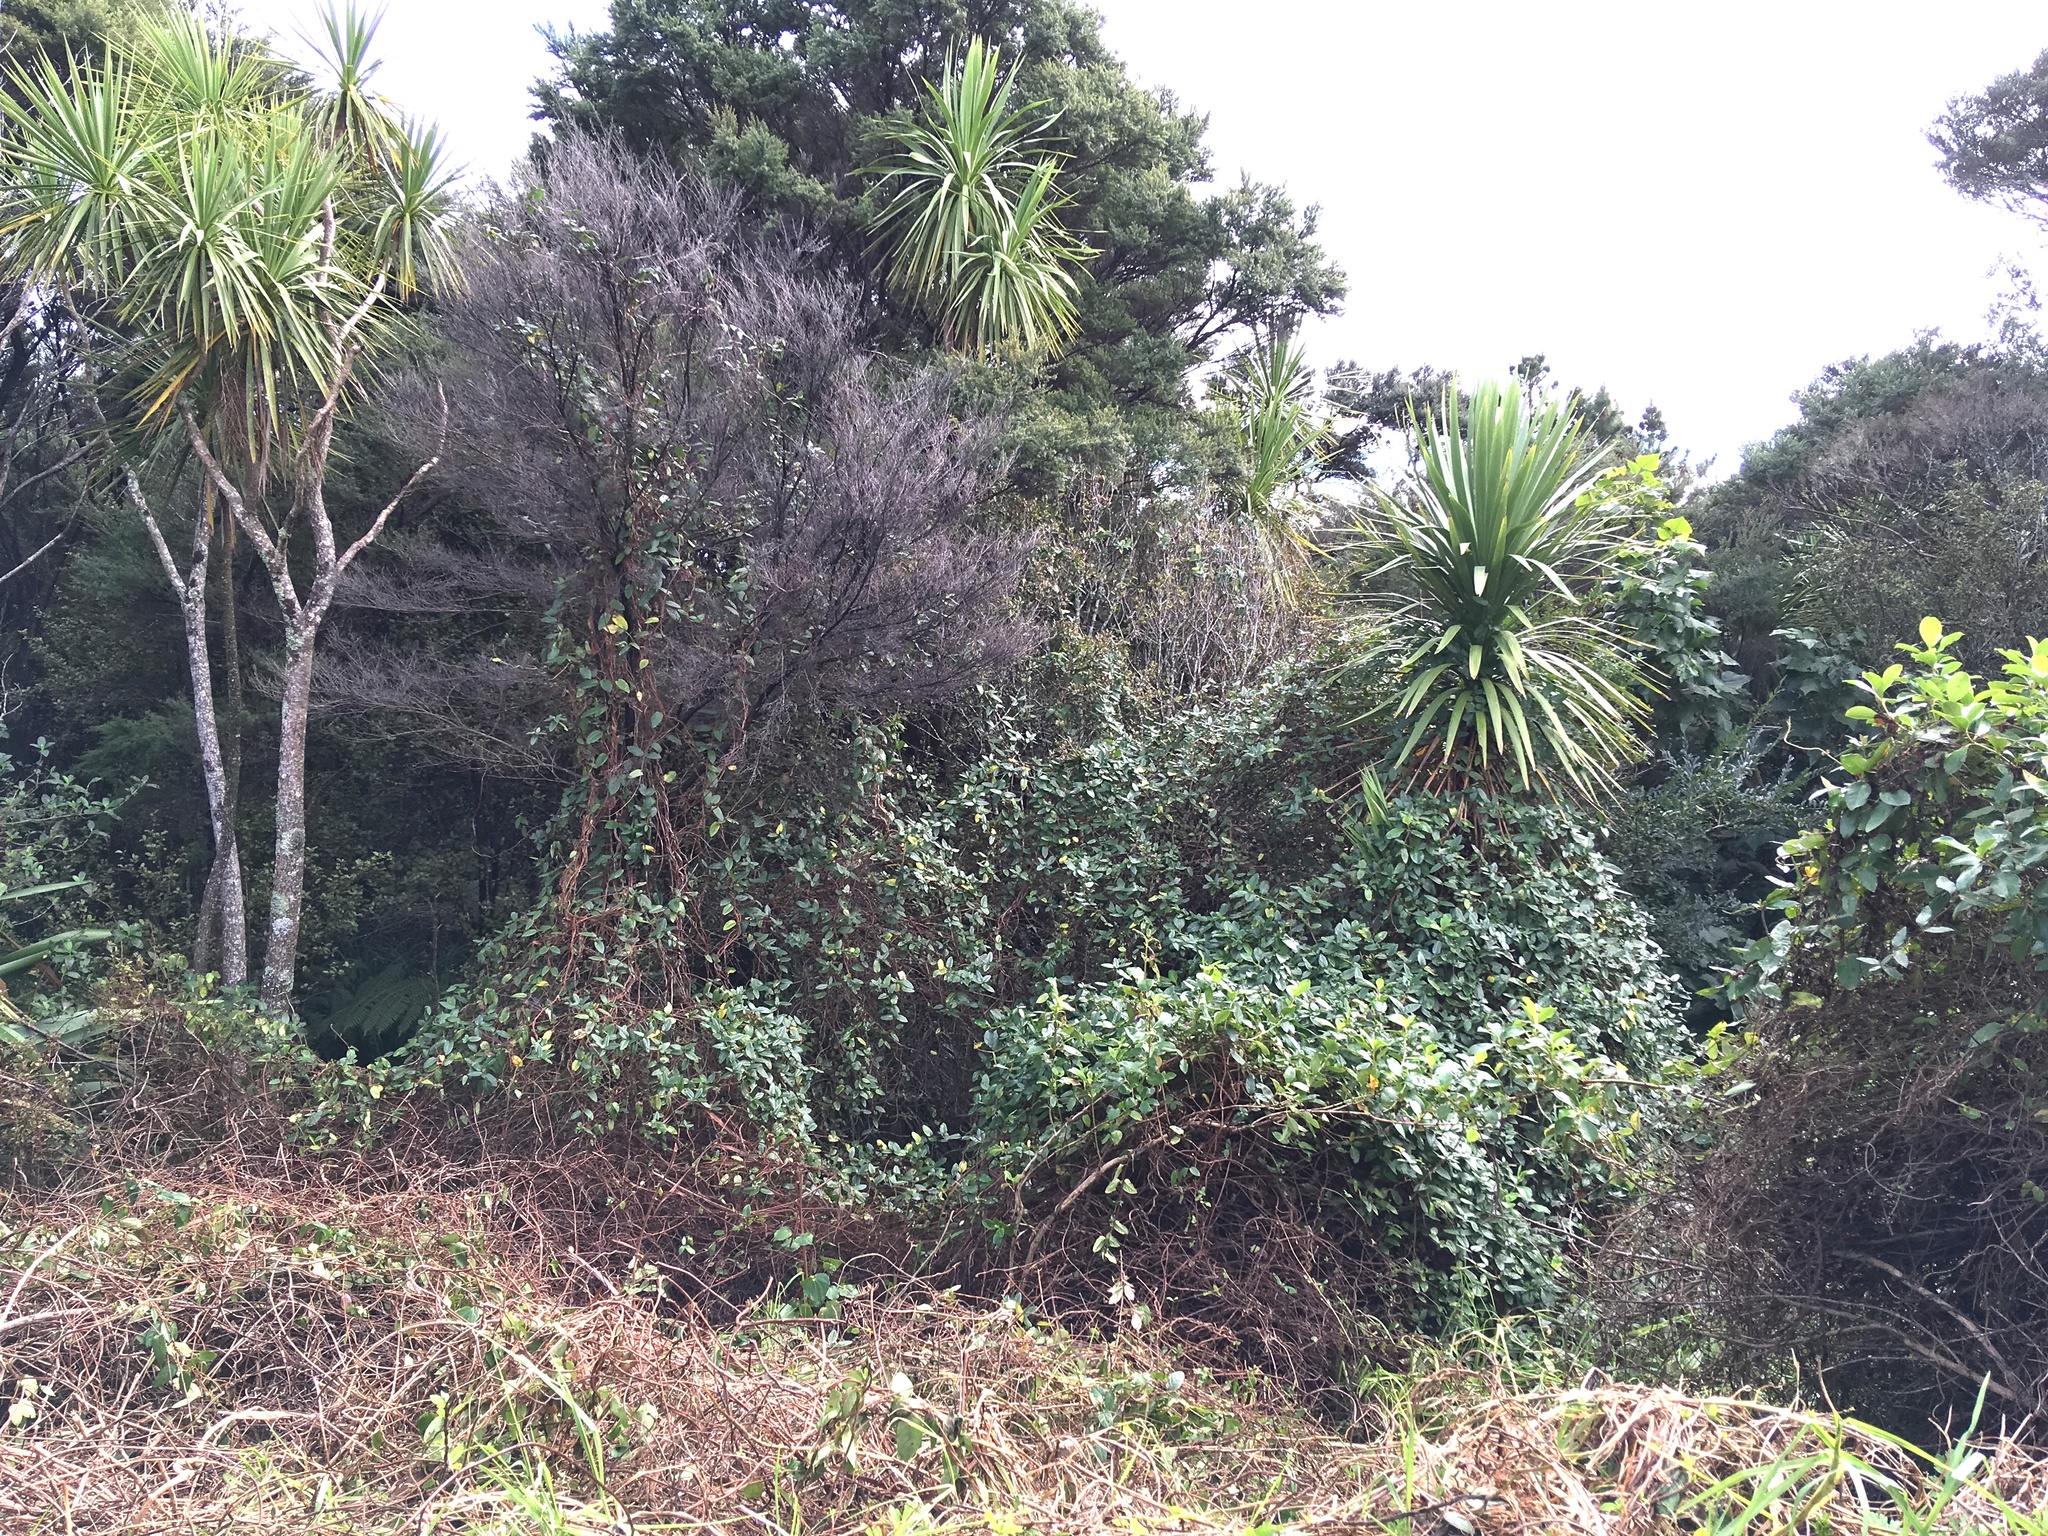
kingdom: Plantae
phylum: Tracheophyta
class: Magnoliopsida
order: Dipsacales
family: Caprifoliaceae
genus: Lonicera
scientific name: Lonicera japonica
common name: Japanese honeysuckle
